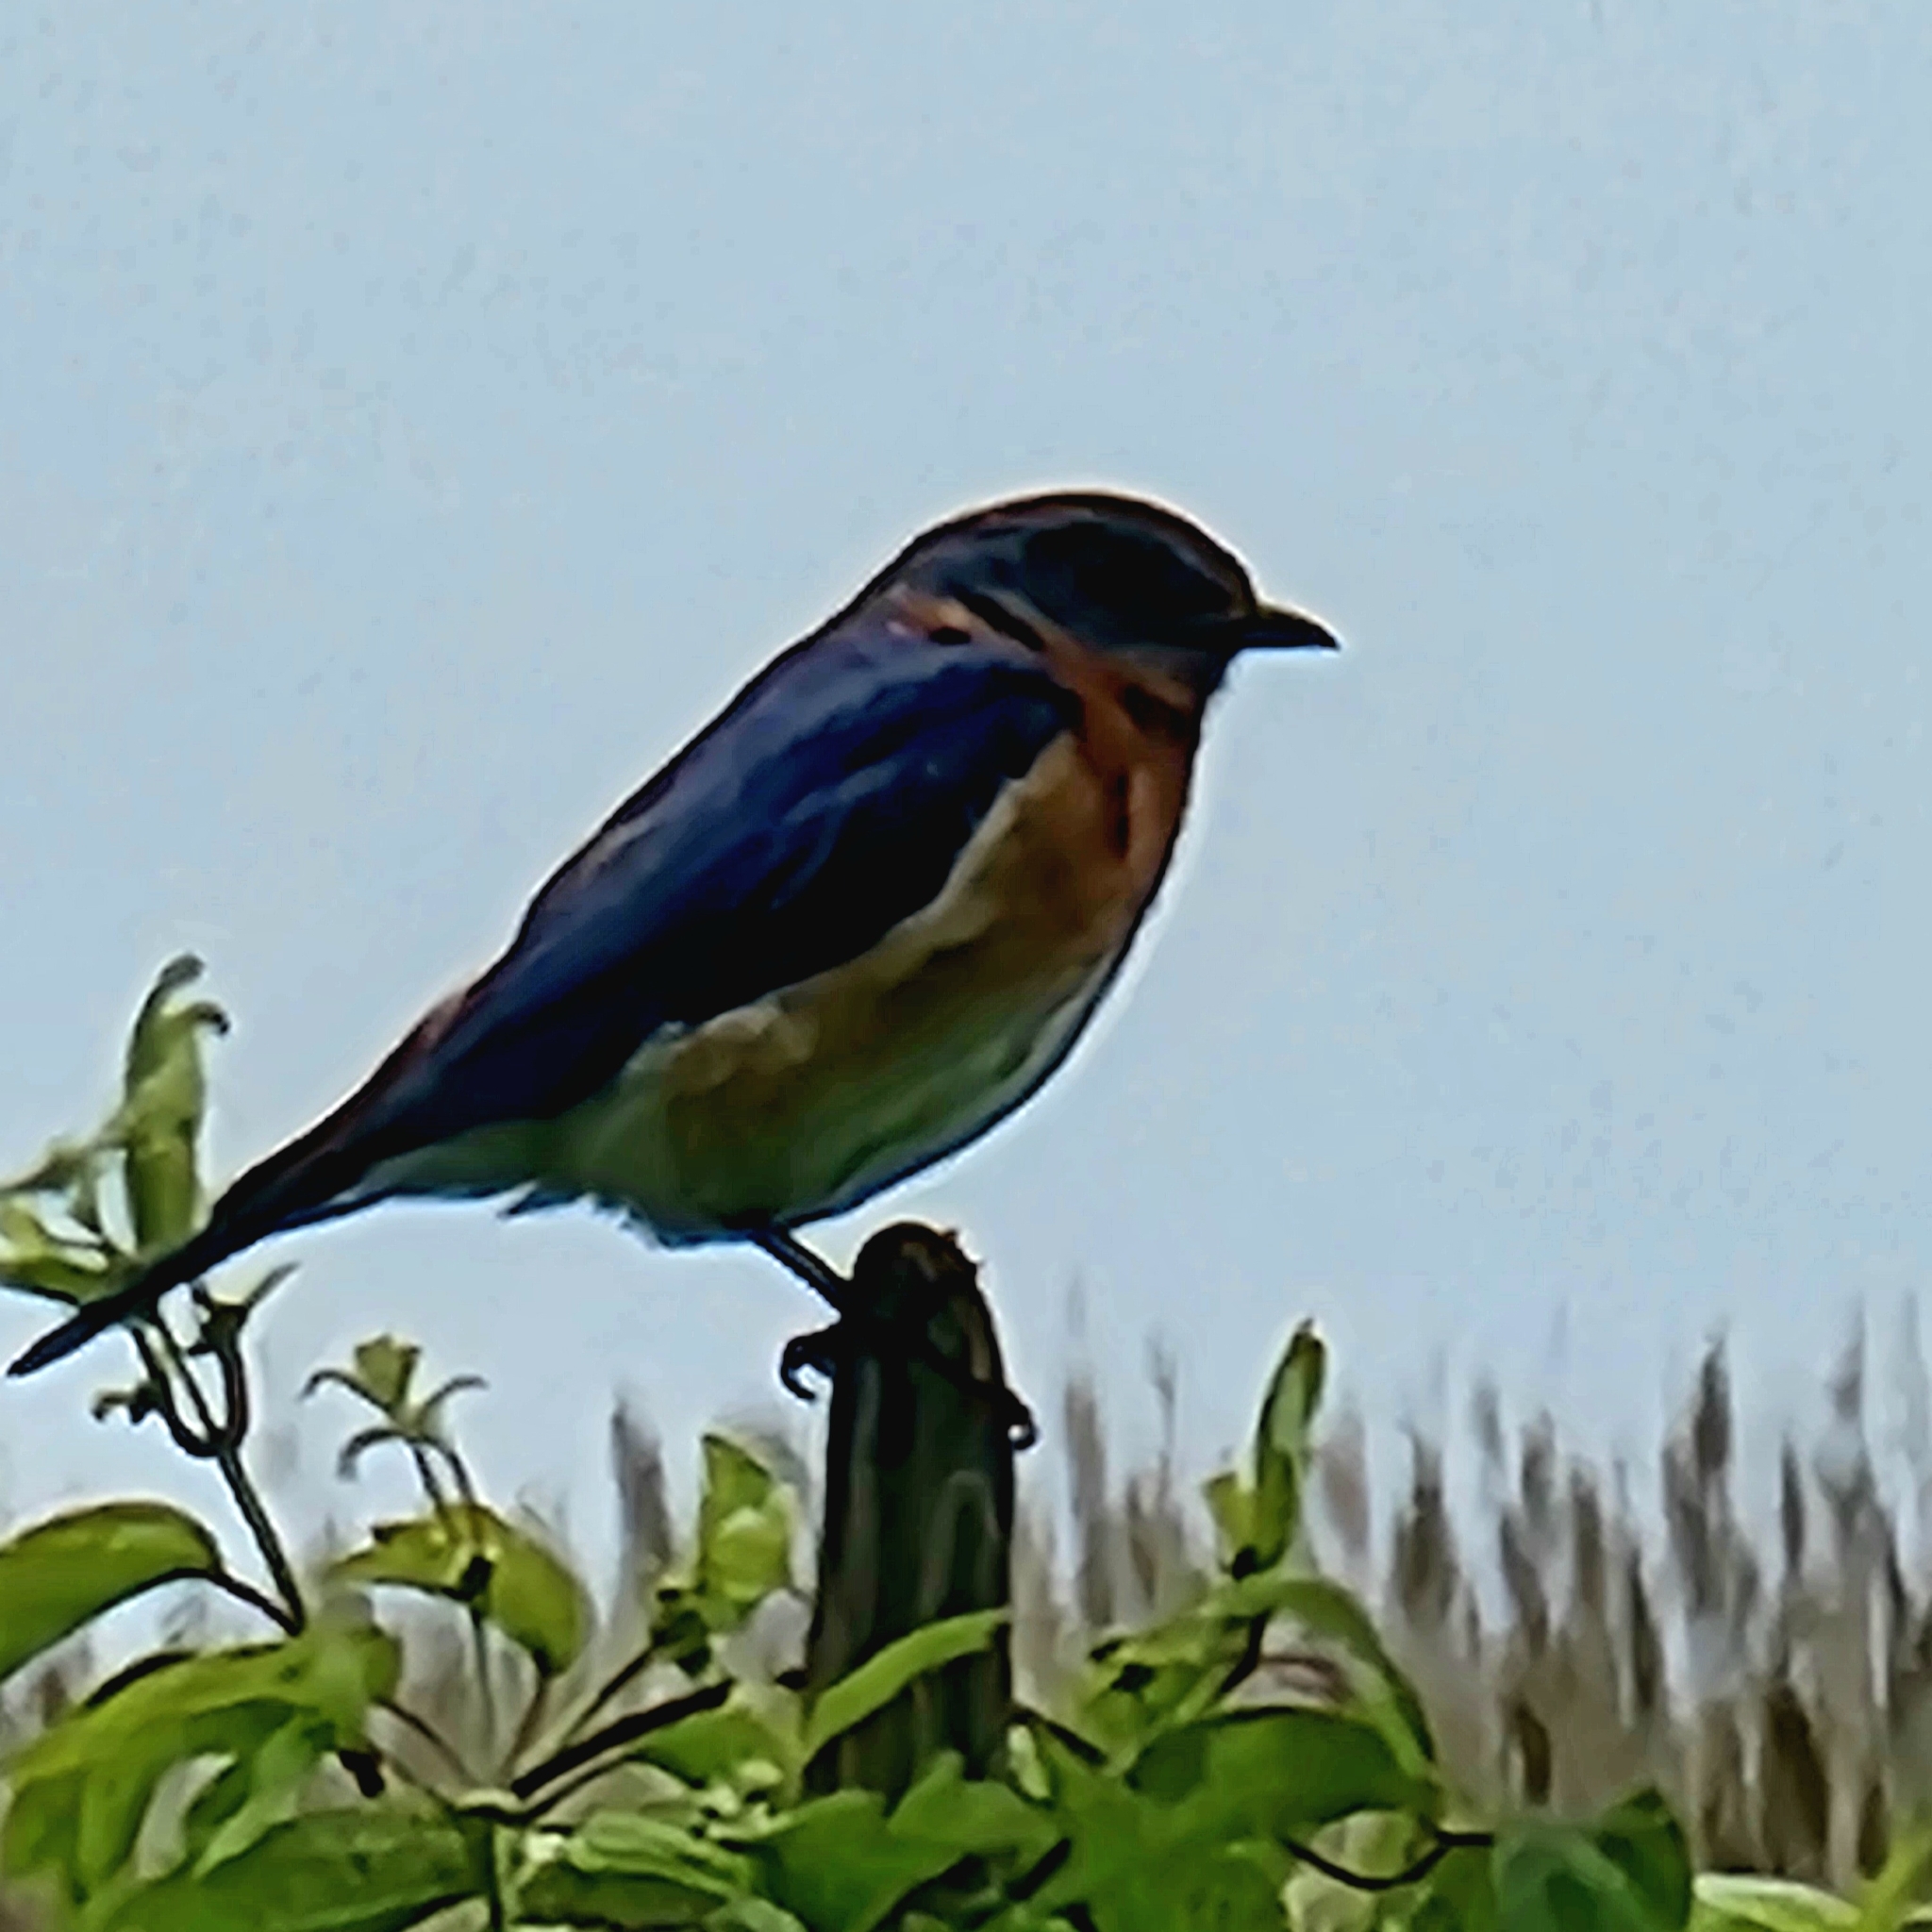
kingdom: Animalia
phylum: Chordata
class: Aves
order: Passeriformes
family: Turdidae
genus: Sialia
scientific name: Sialia sialis
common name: Eastern bluebird
